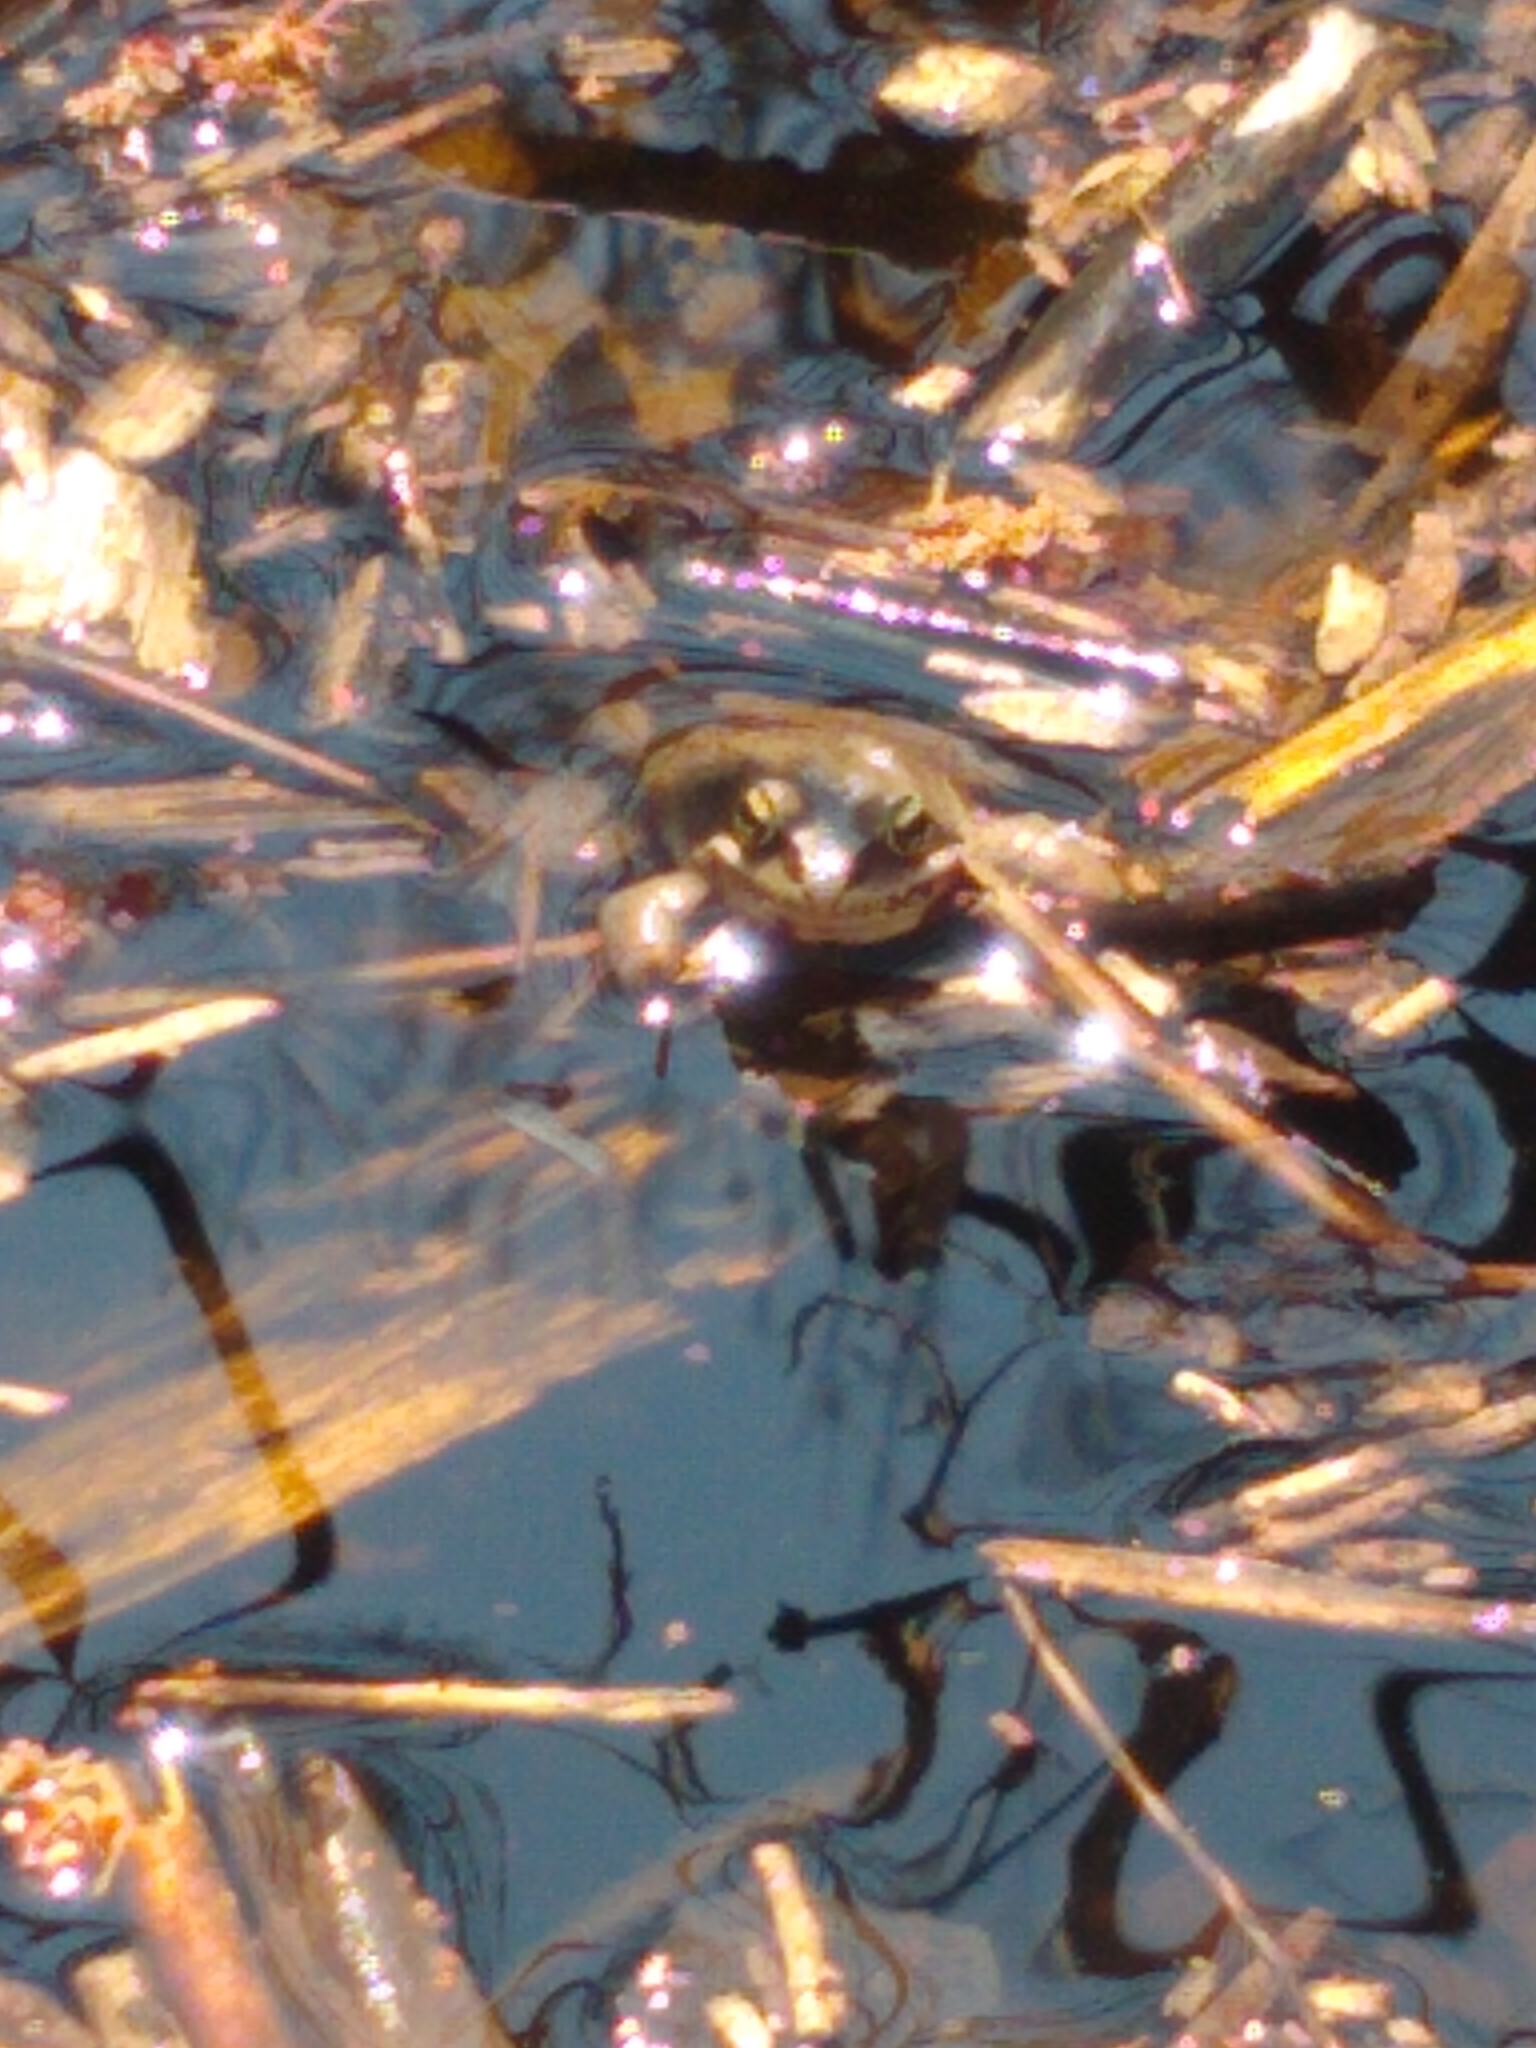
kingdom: Animalia
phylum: Chordata
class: Amphibia
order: Anura
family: Ranidae
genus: Lithobates
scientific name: Lithobates sylvaticus
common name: Wood frog
